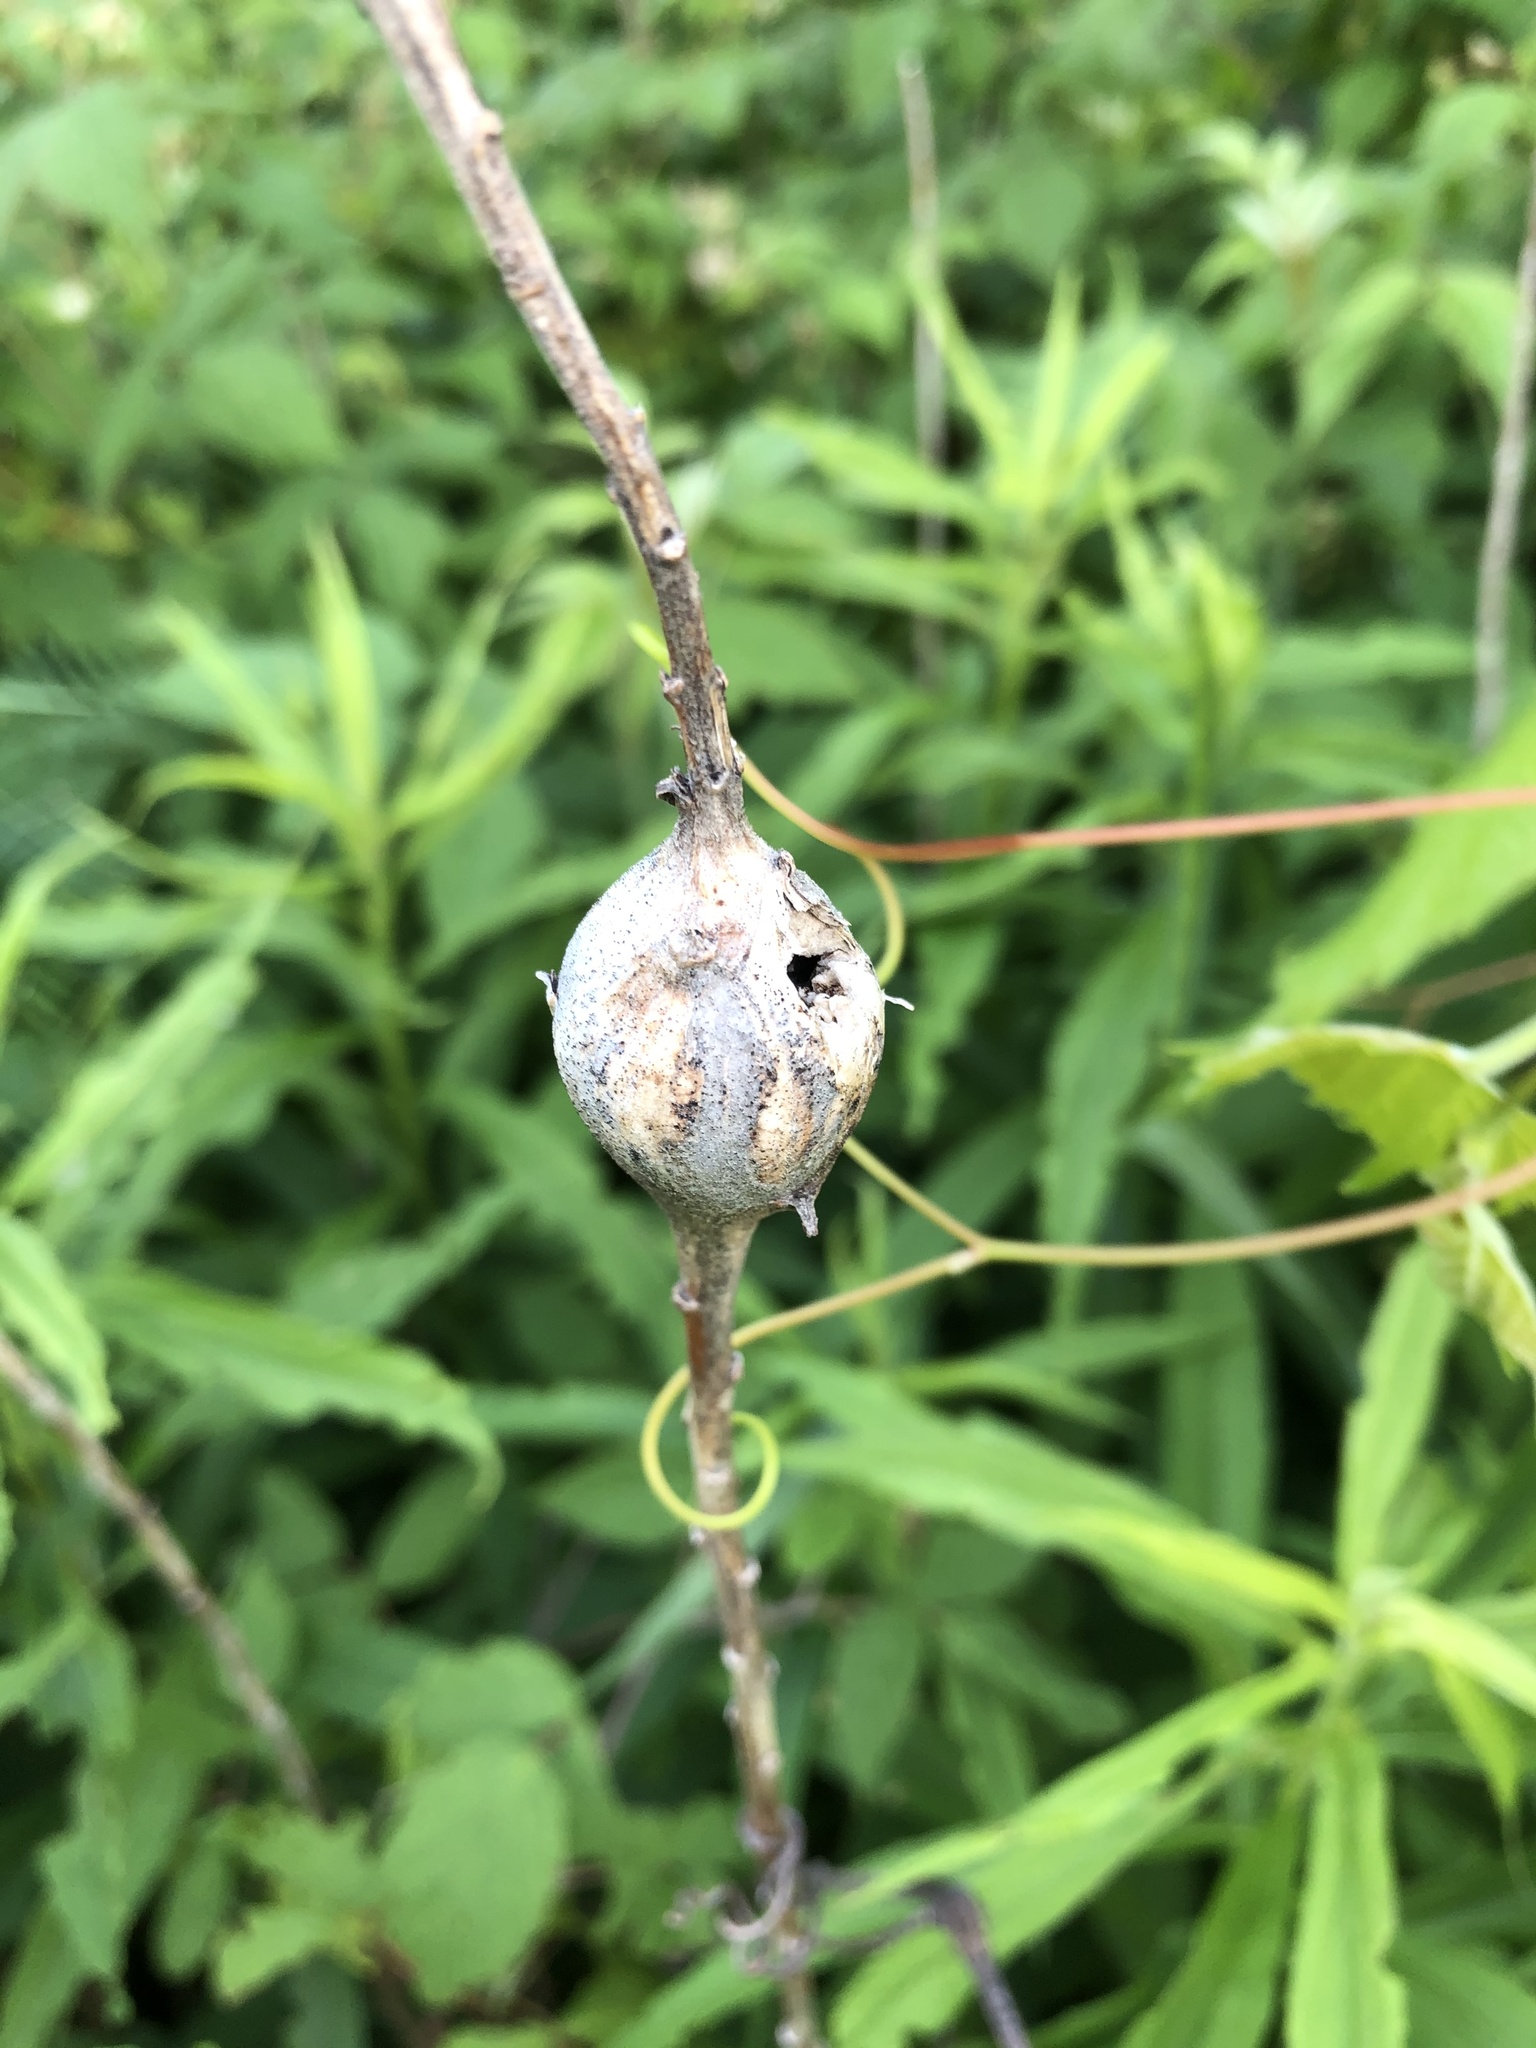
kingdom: Animalia
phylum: Arthropoda
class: Insecta
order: Diptera
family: Tephritidae
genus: Eurosta
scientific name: Eurosta solidaginis
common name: Goldenrod gall fly
